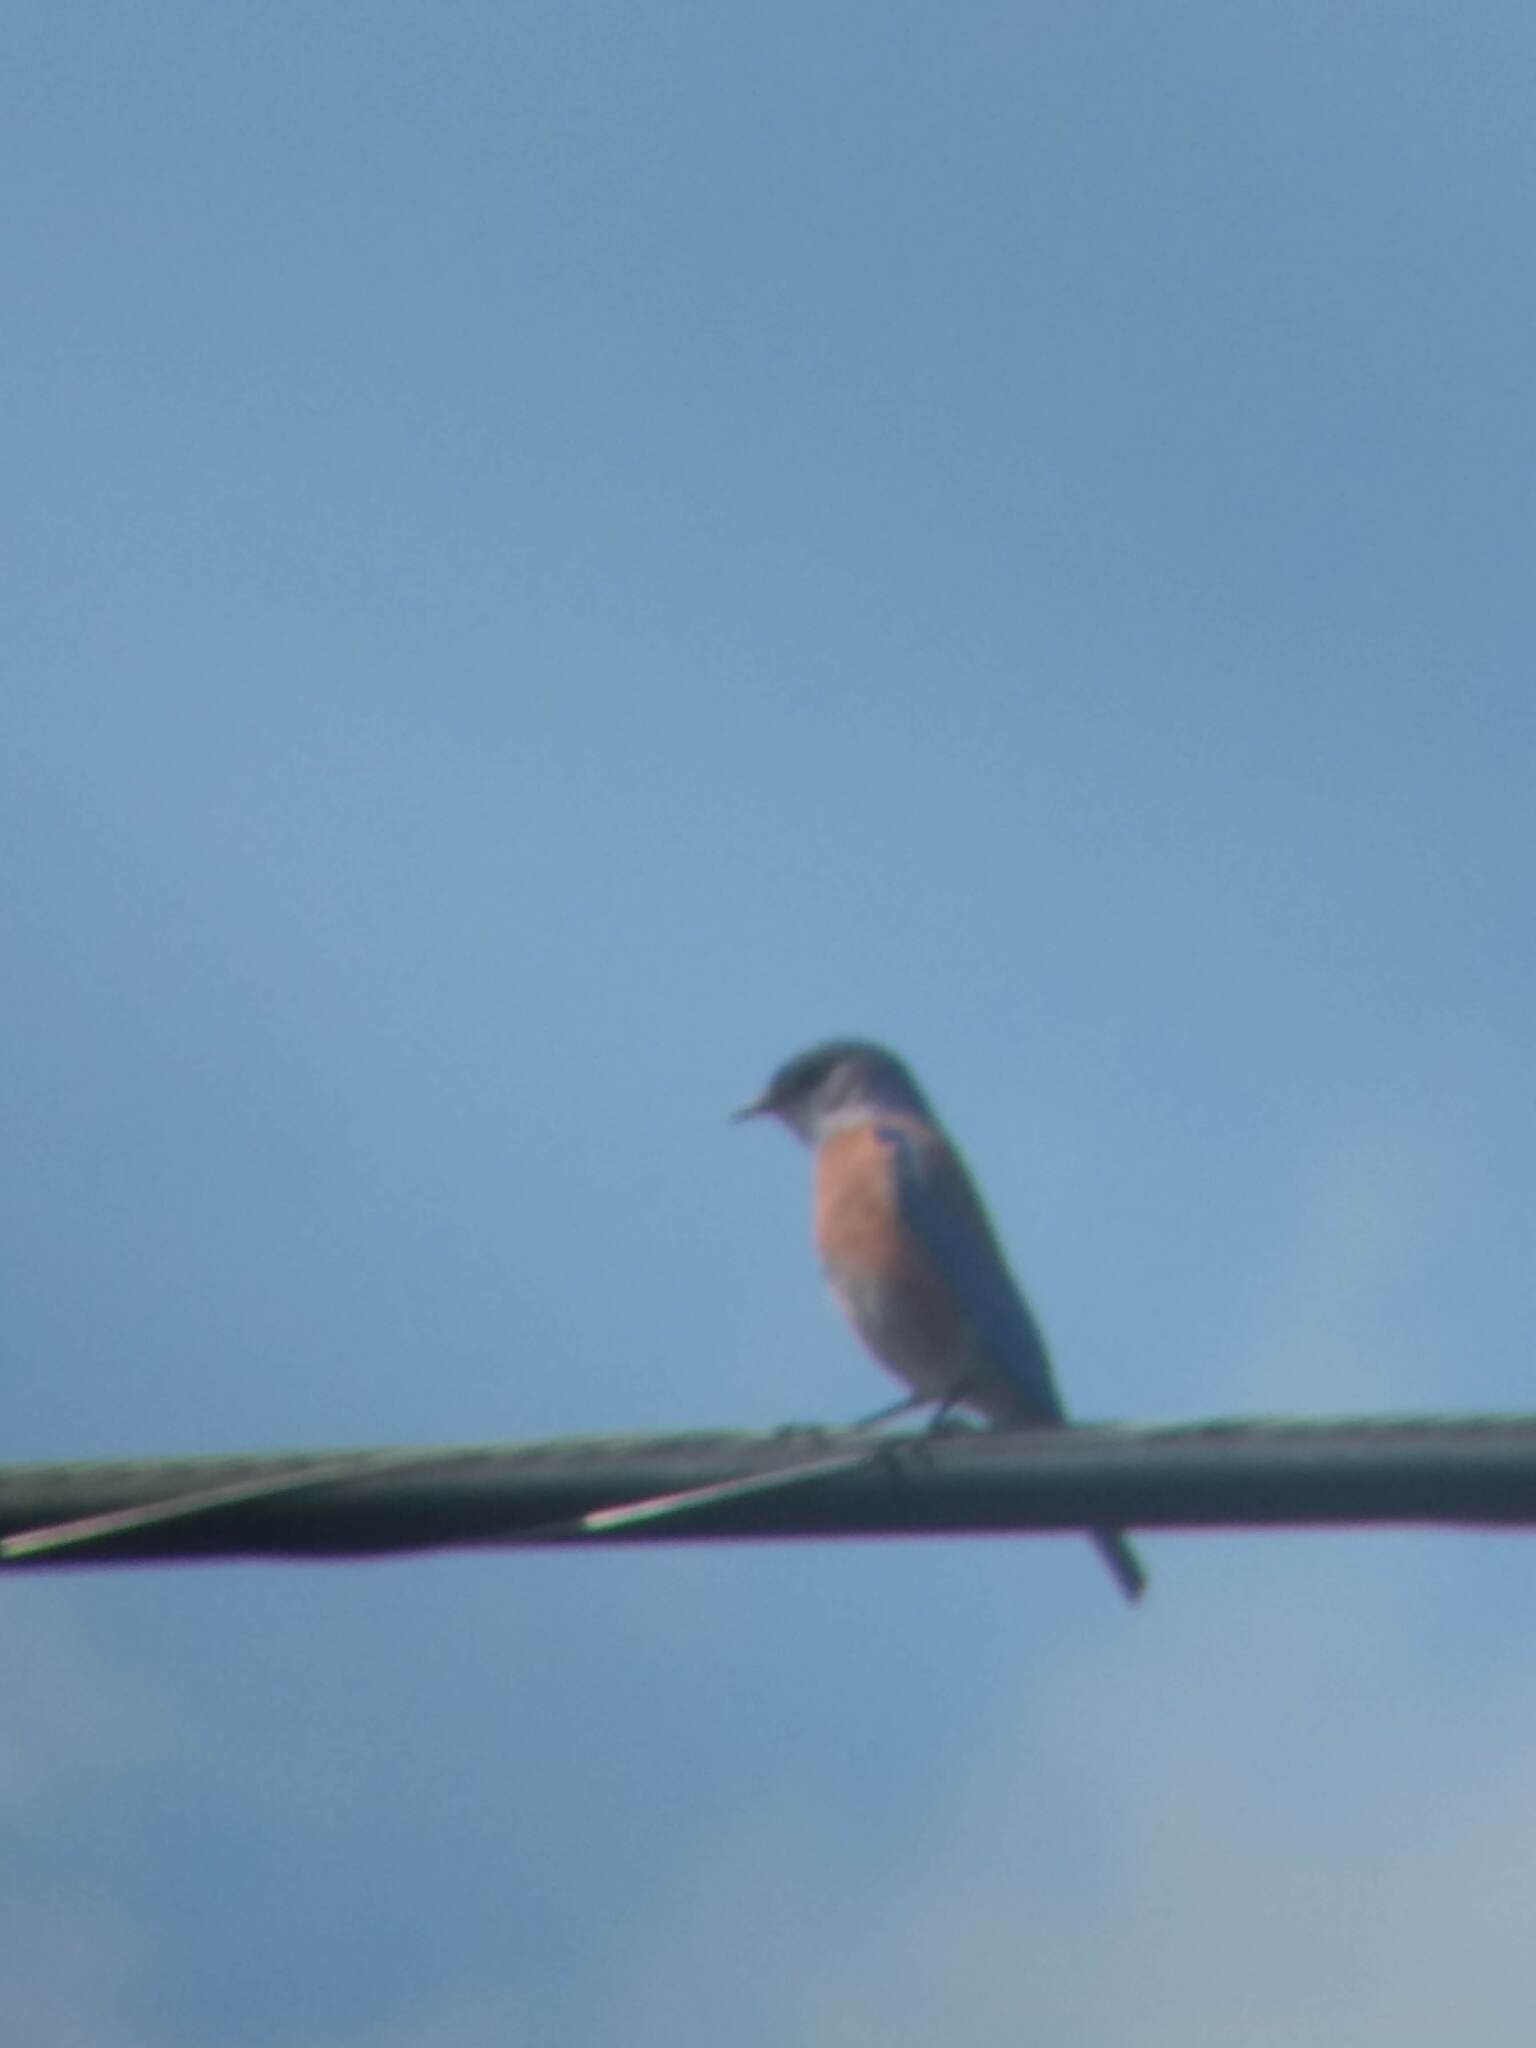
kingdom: Animalia
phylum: Chordata
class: Aves
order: Passeriformes
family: Turdidae
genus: Sialia
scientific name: Sialia mexicana
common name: Western bluebird
